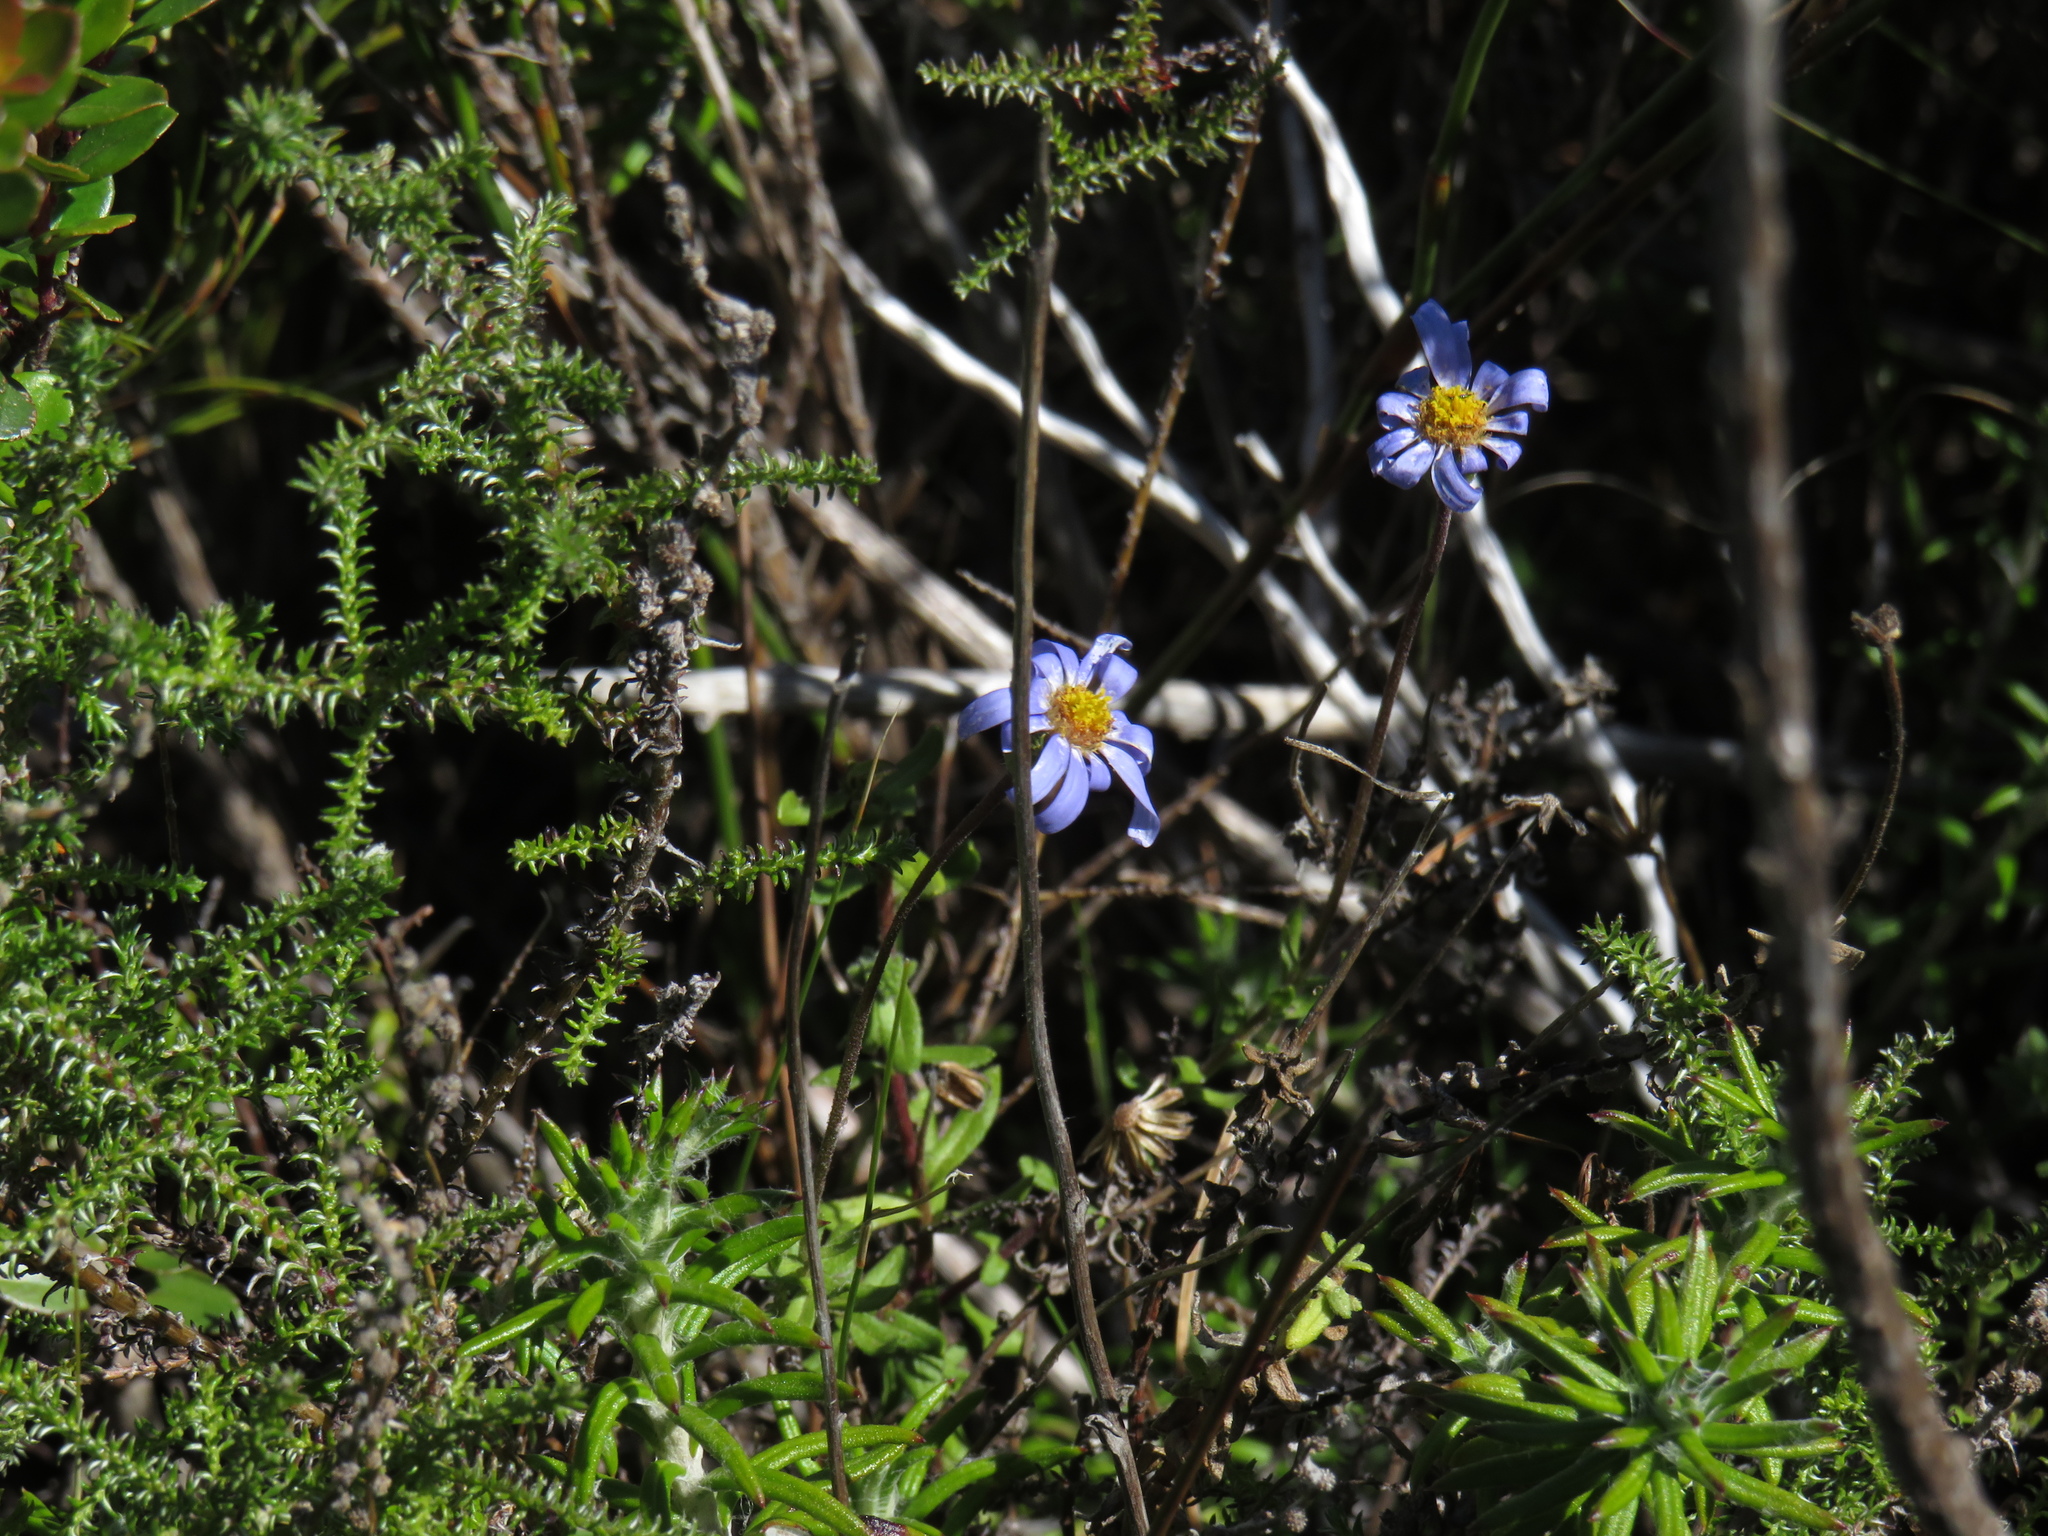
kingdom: Plantae
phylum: Tracheophyta
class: Magnoliopsida
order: Asterales
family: Asteraceae
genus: Felicia
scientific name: Felicia aethiopica
